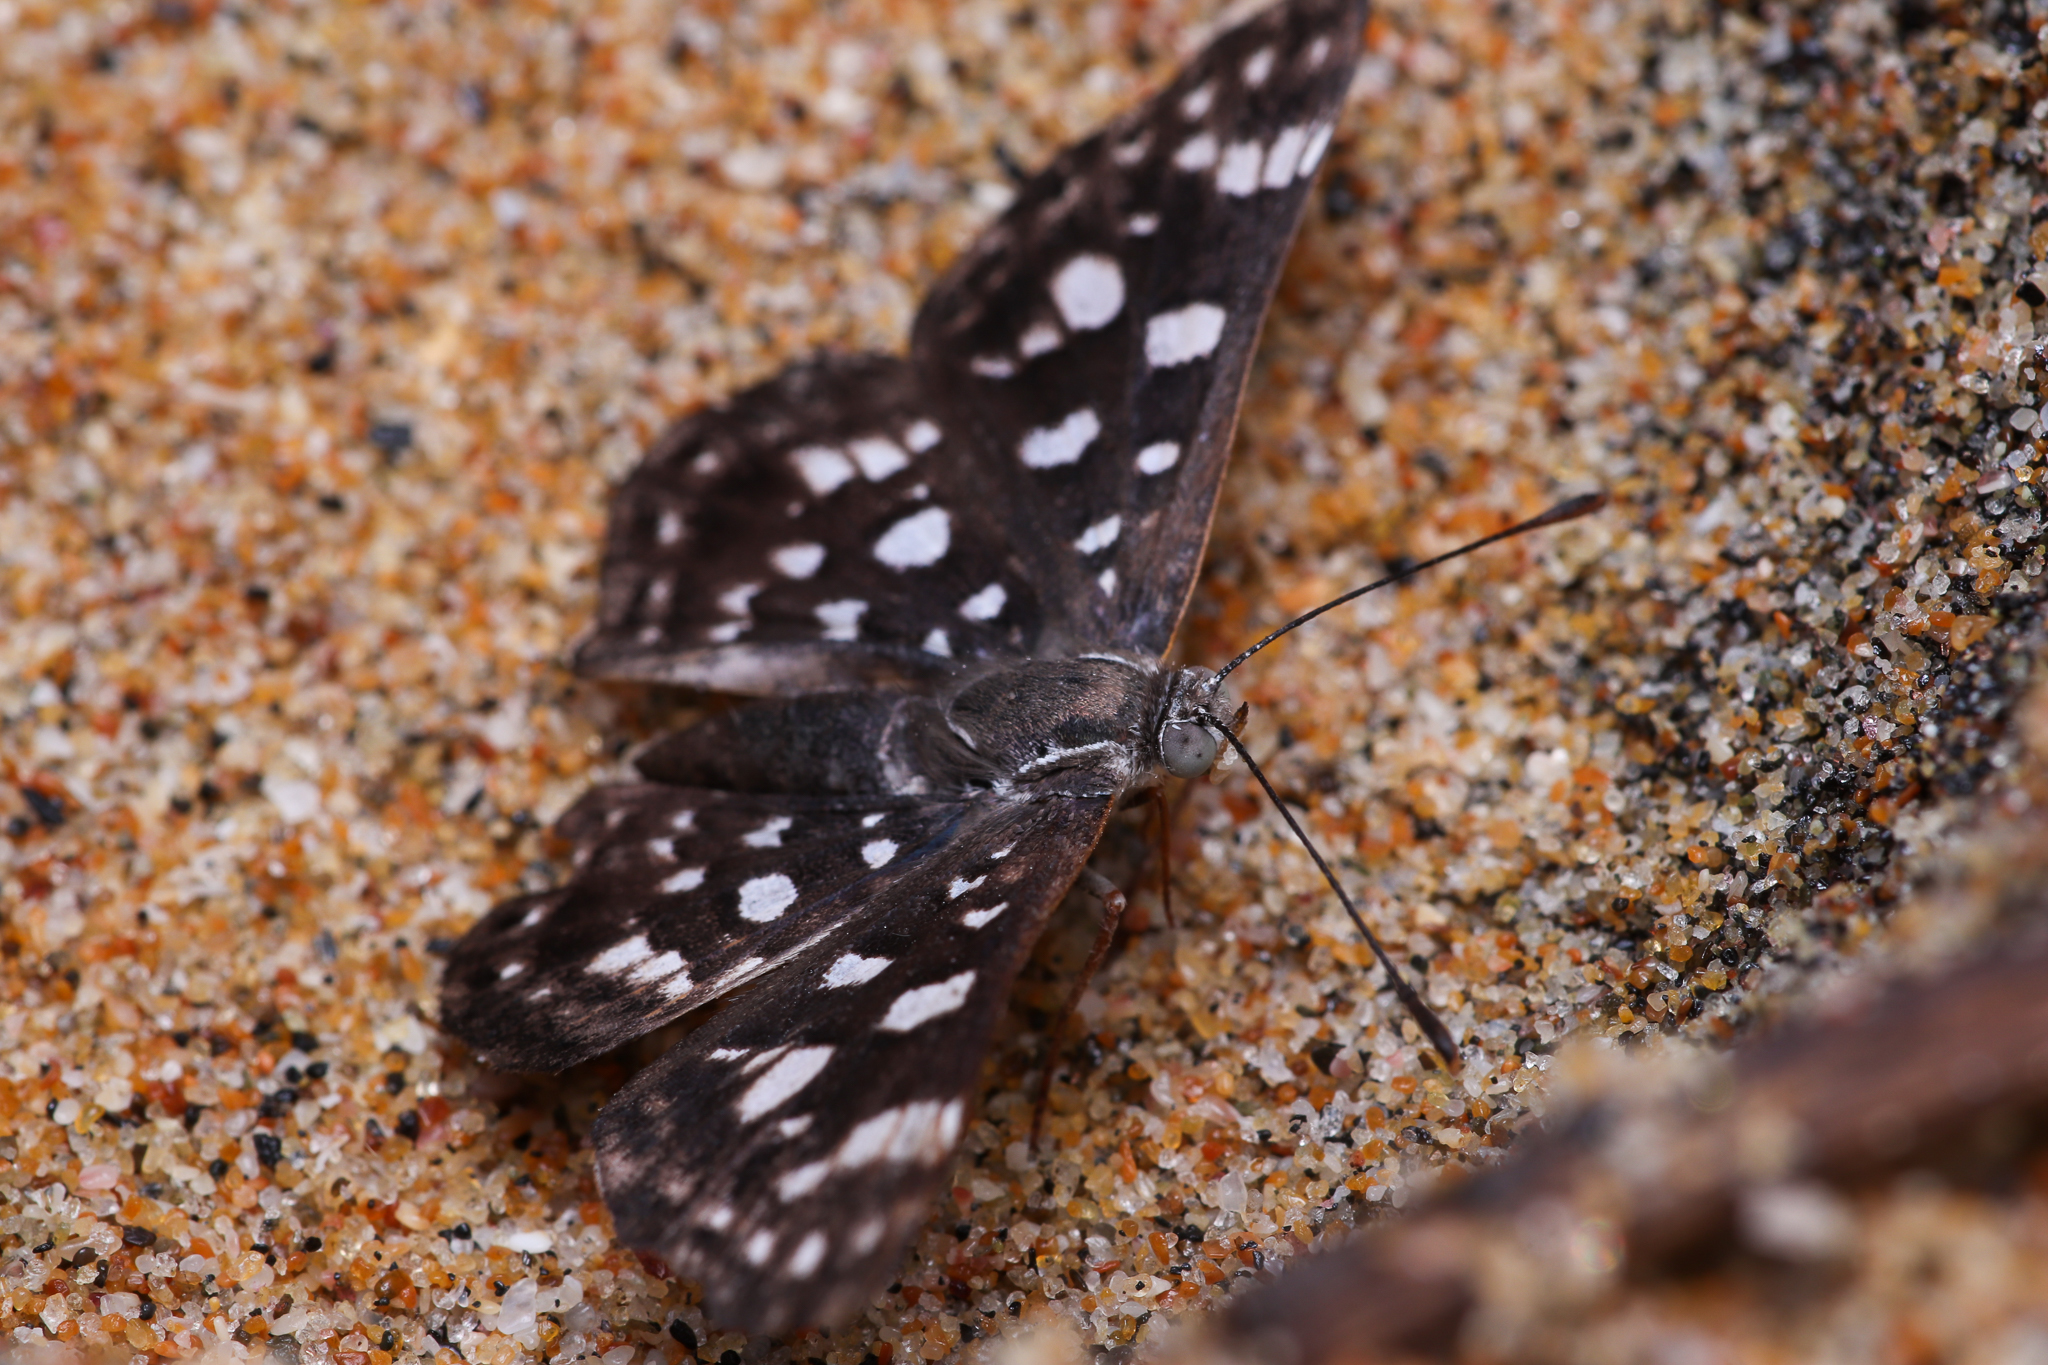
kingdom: Animalia
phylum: Arthropoda
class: Insecta
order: Lepidoptera
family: Riodinidae
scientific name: Riodinidae
